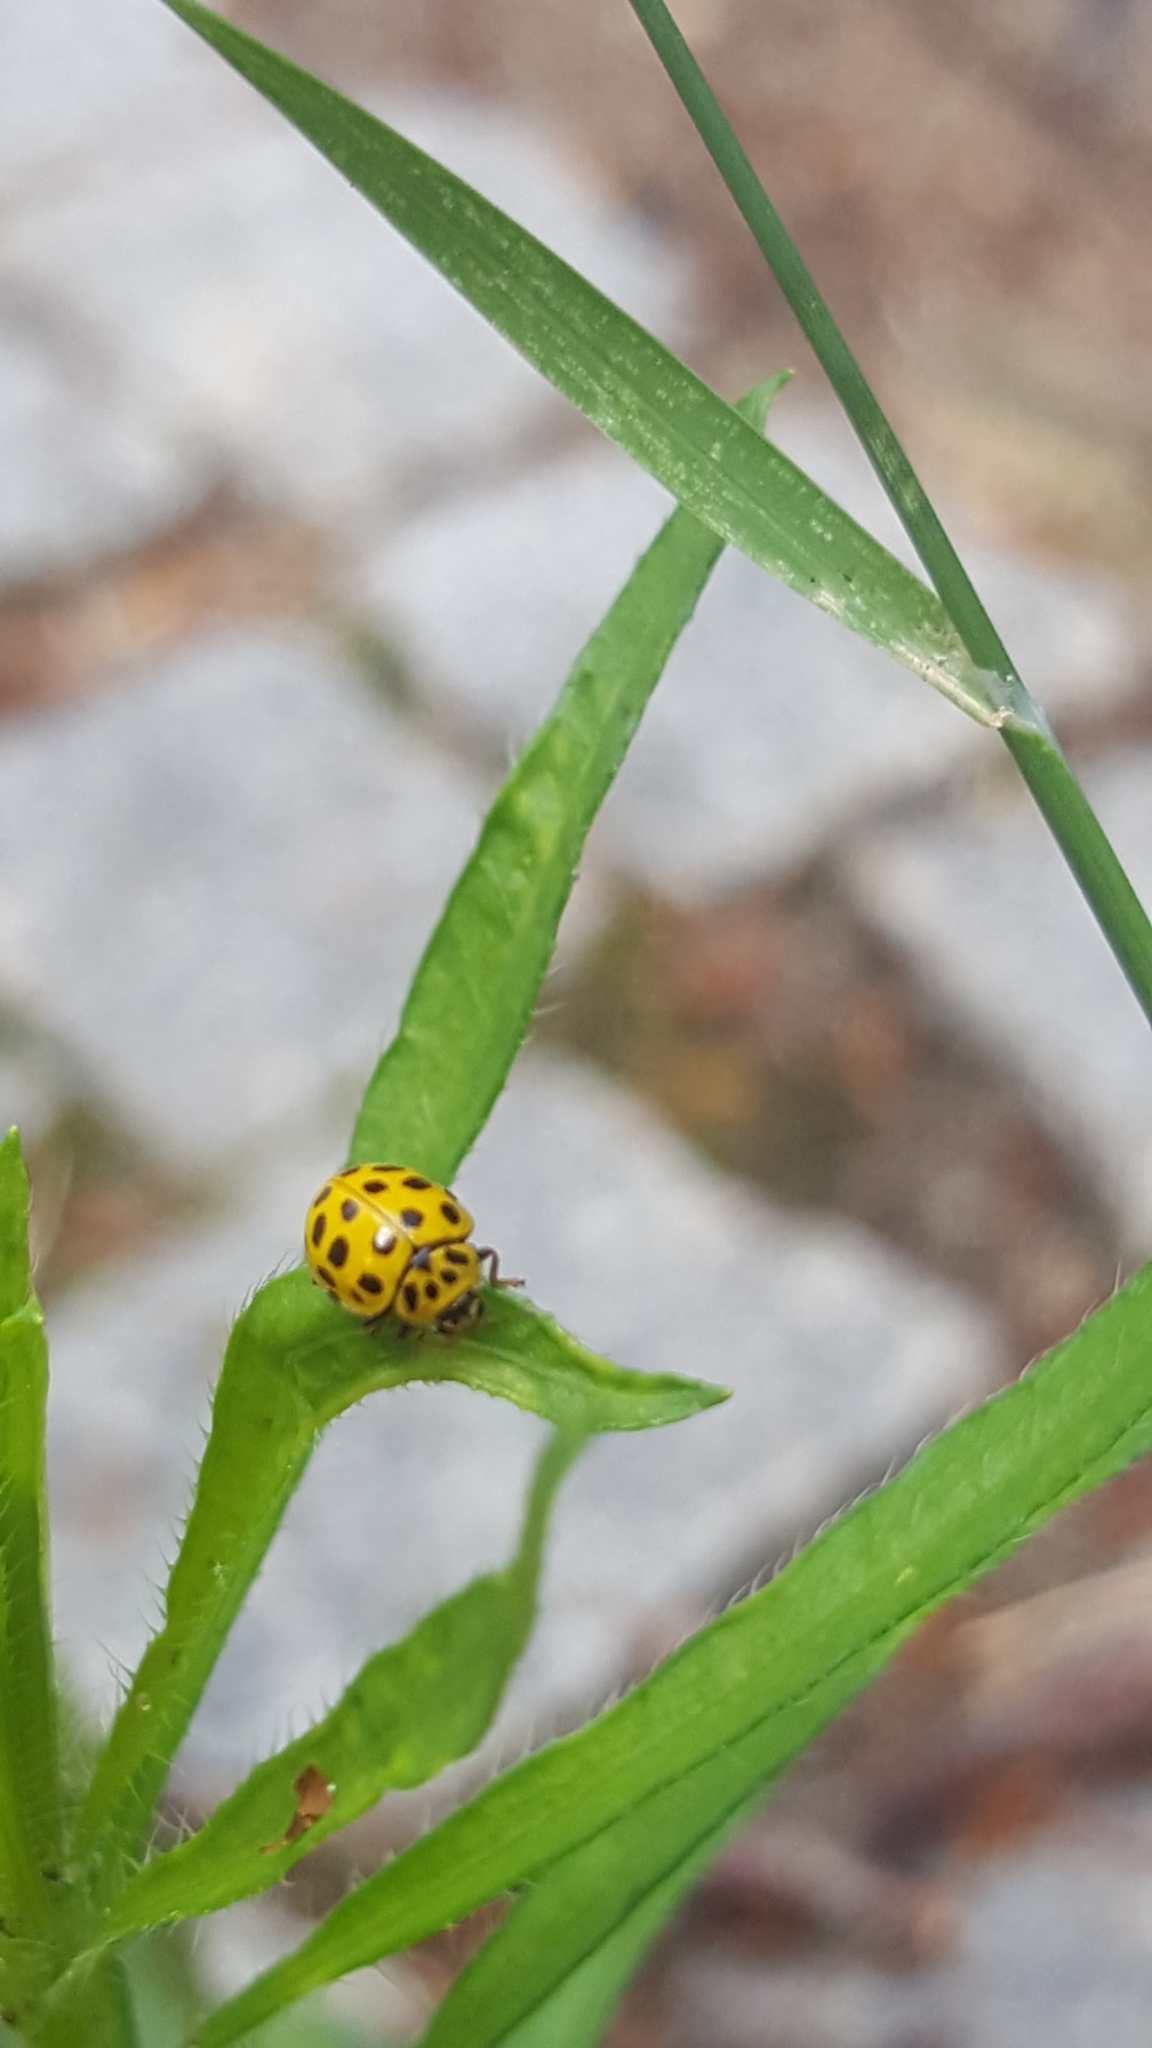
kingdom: Animalia
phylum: Arthropoda
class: Insecta
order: Coleoptera
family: Coccinellidae
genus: Psyllobora
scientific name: Psyllobora vigintiduopunctata
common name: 22-spot ladybird
